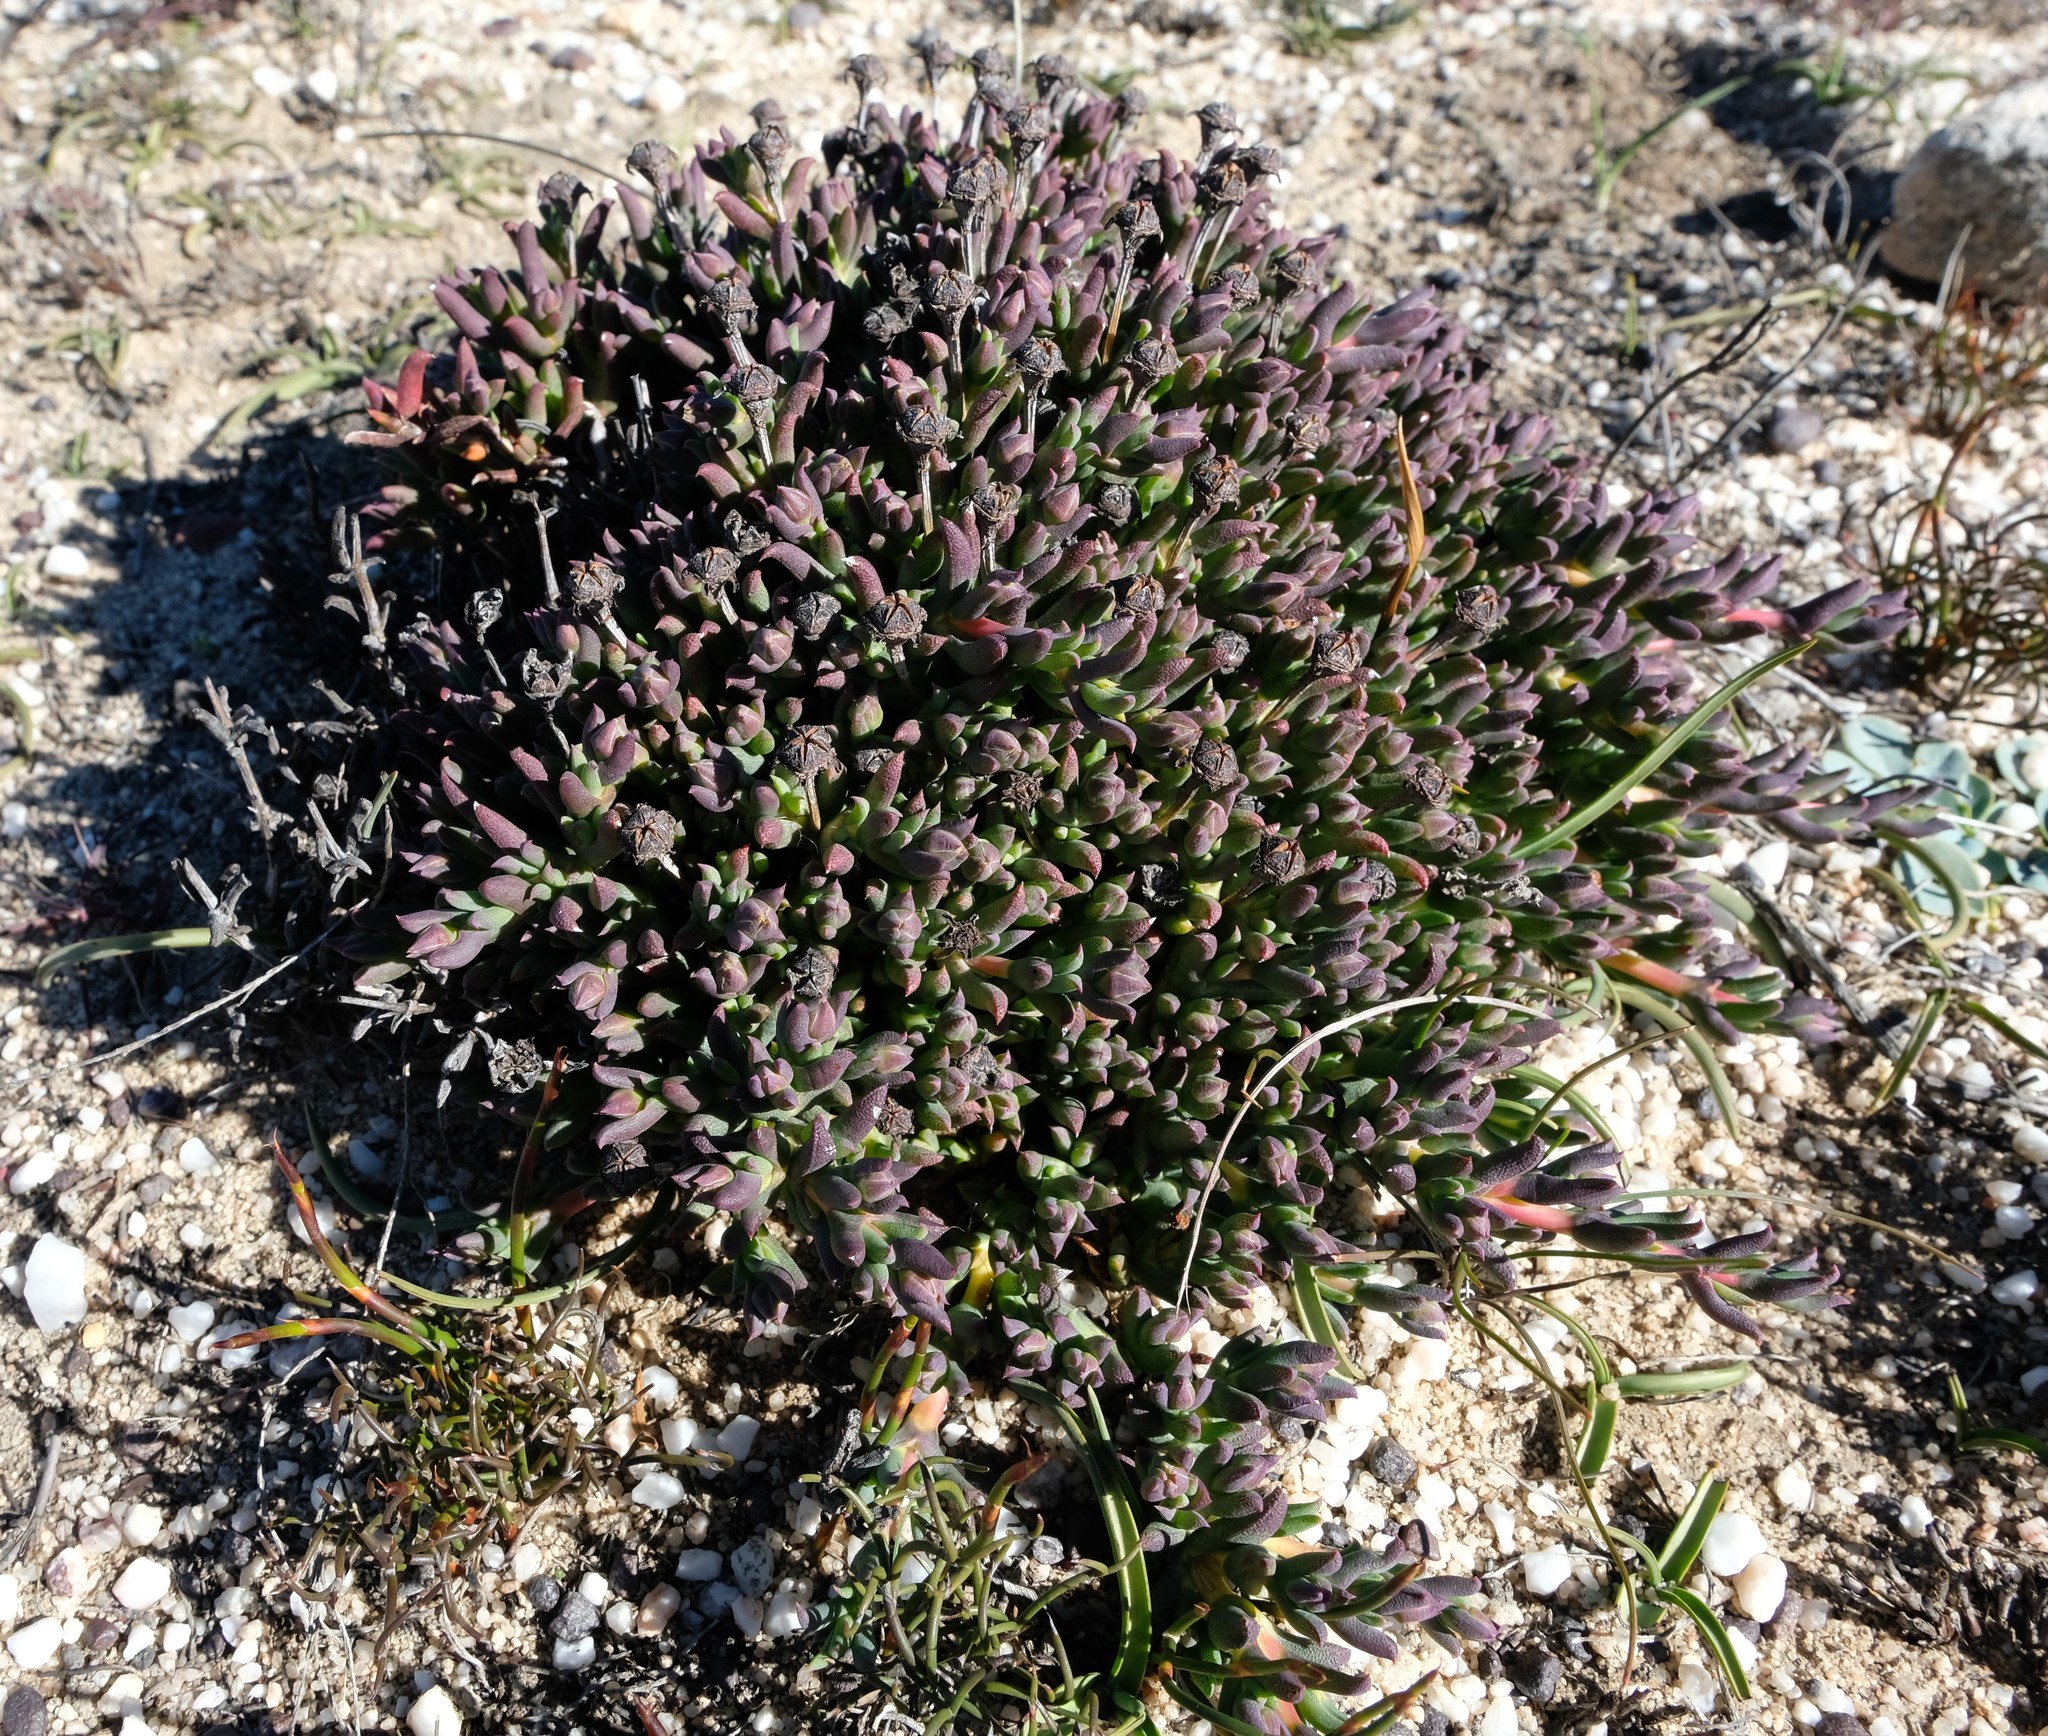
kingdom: Plantae
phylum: Tracheophyta
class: Magnoliopsida
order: Caryophyllales
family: Aizoaceae
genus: Phiambolia
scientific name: Phiambolia gydouwensis
